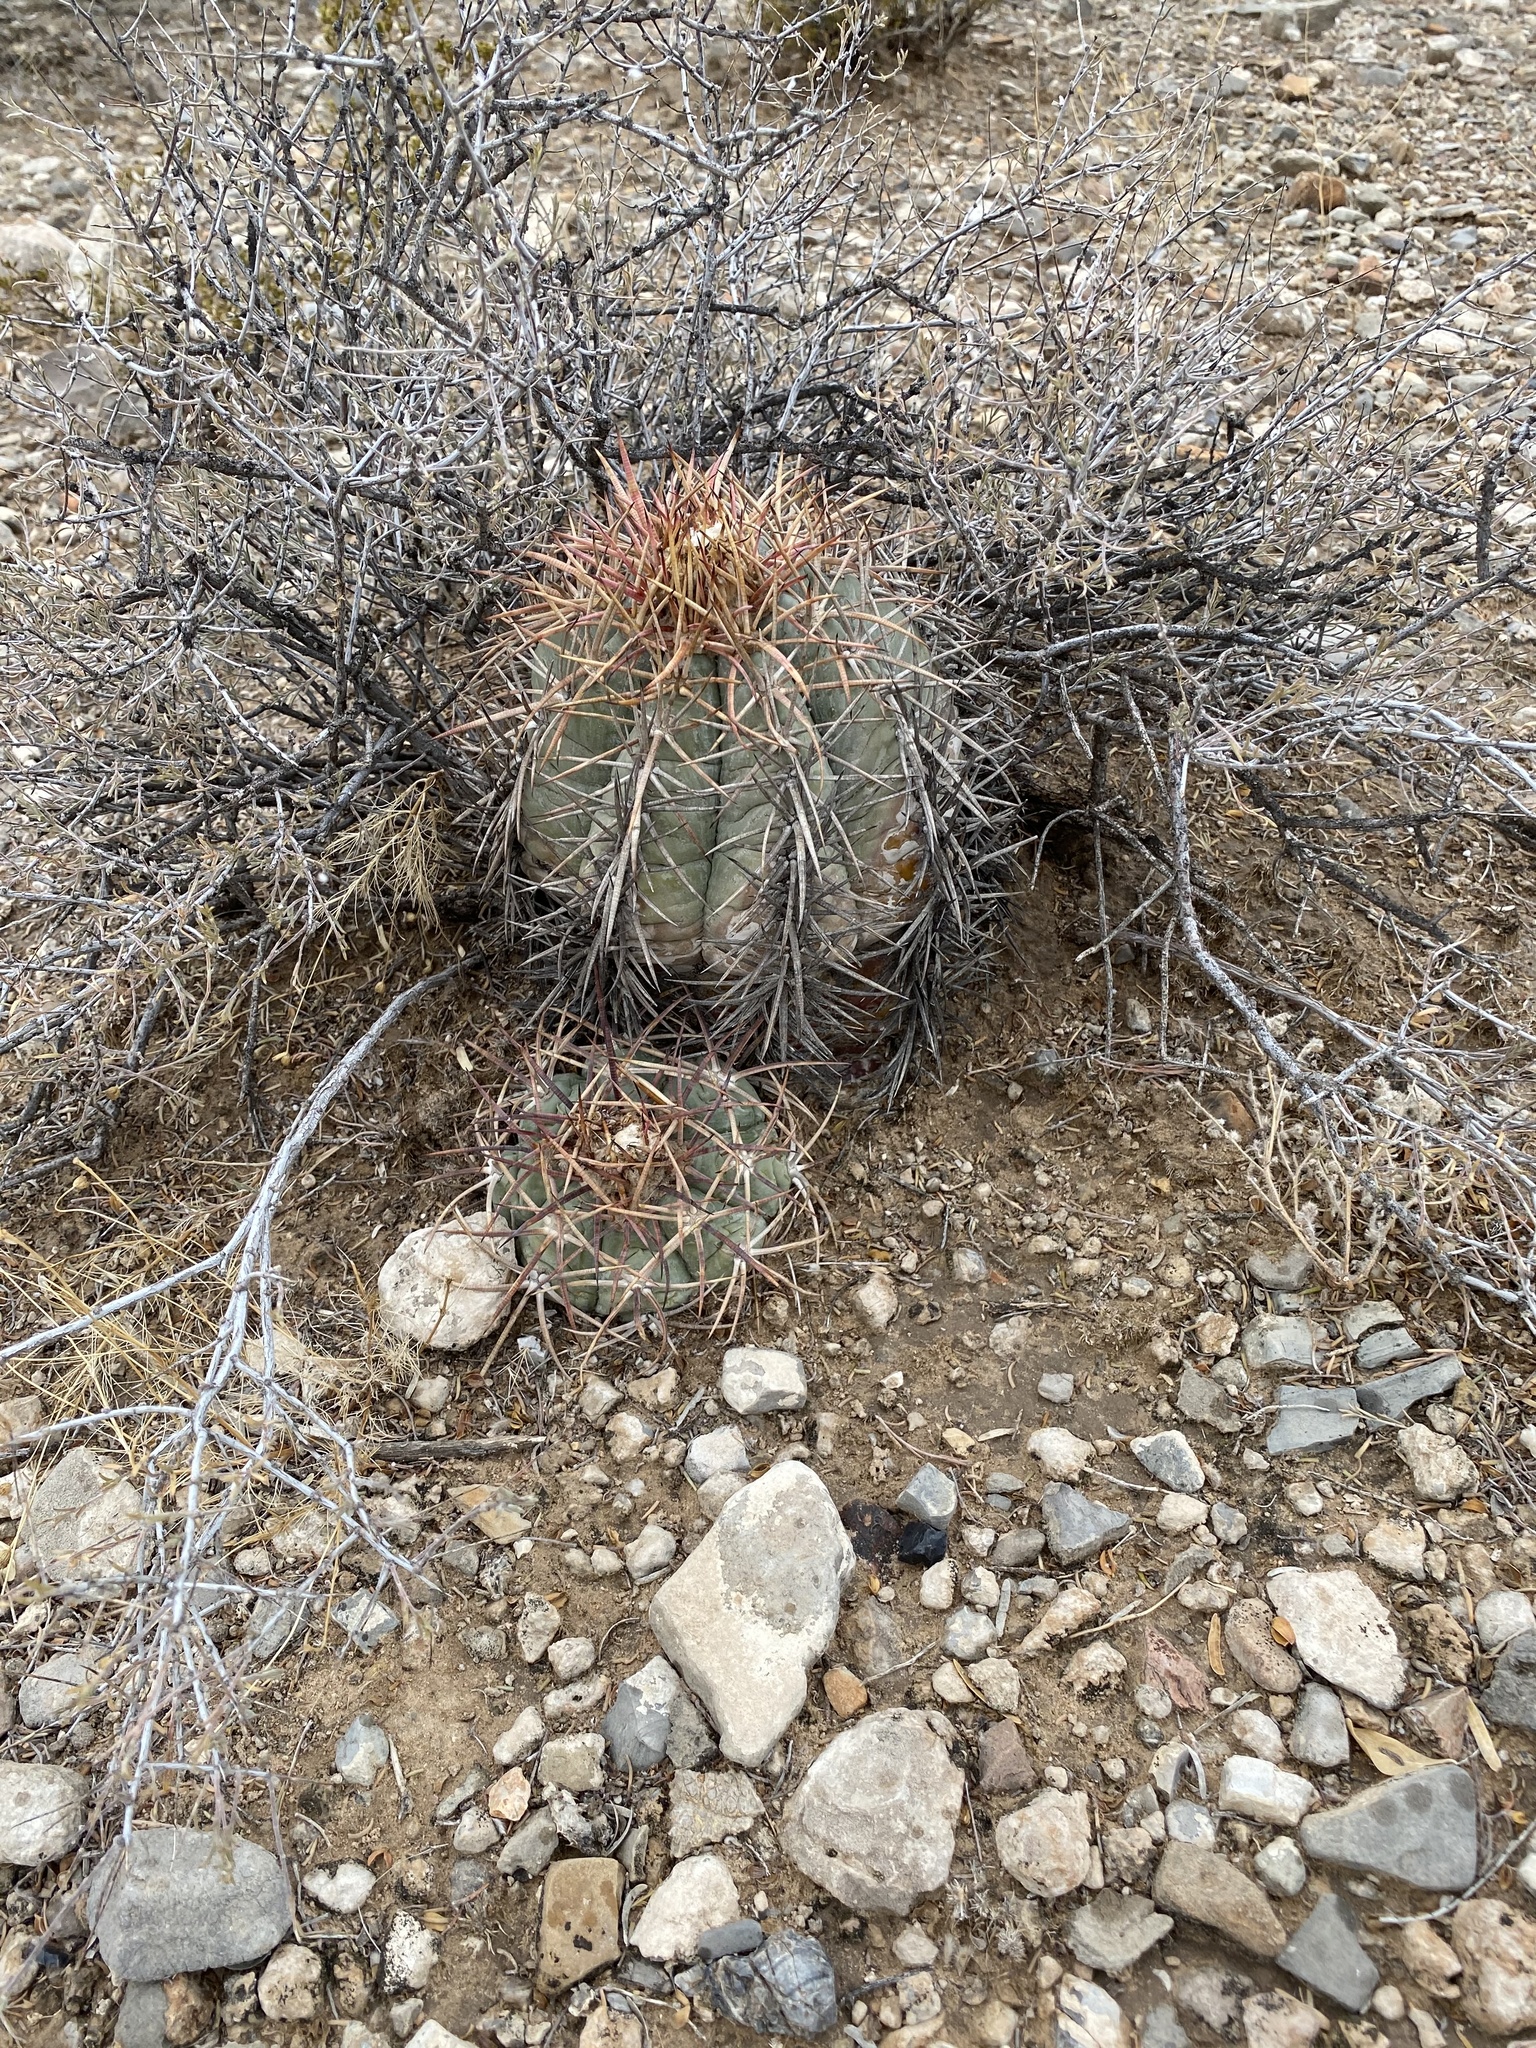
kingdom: Plantae
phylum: Tracheophyta
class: Magnoliopsida
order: Caryophyllales
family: Cactaceae
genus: Echinocactus
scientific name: Echinocactus horizonthalonius
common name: Devilshead
